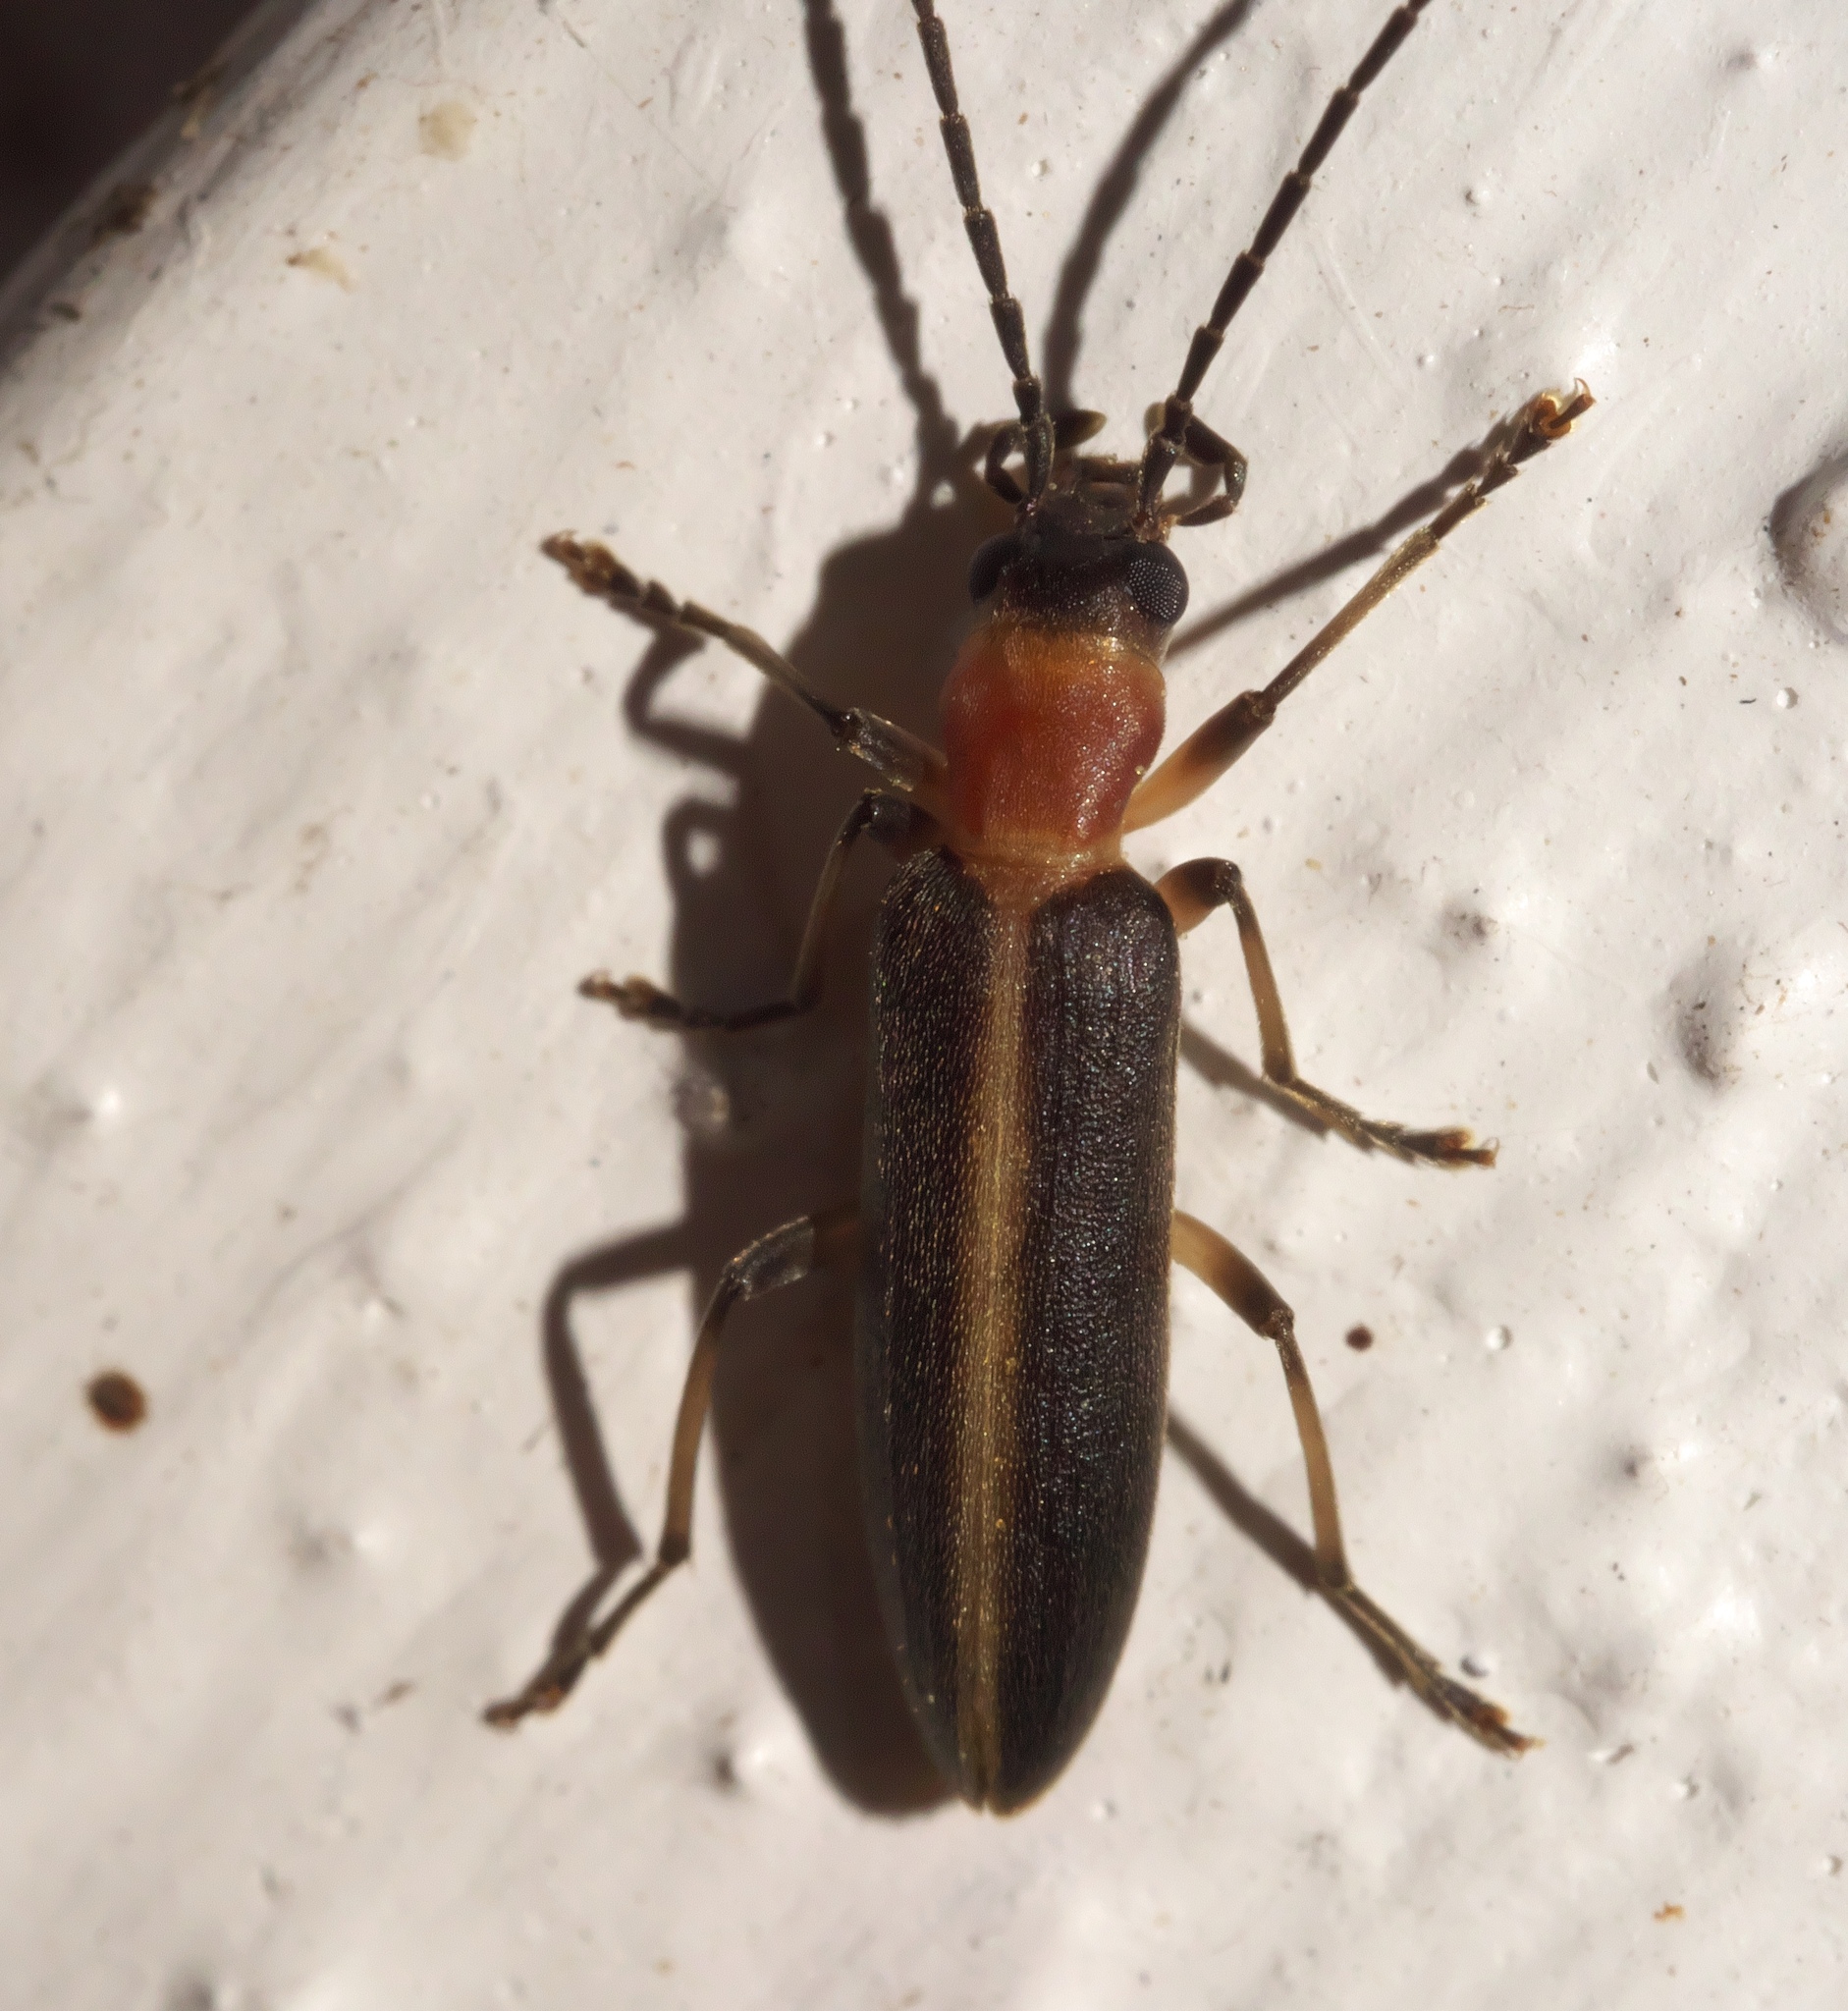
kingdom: Animalia
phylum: Arthropoda
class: Insecta
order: Coleoptera
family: Oedemeridae
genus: Oxycopis
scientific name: Oxycopis mimetica
